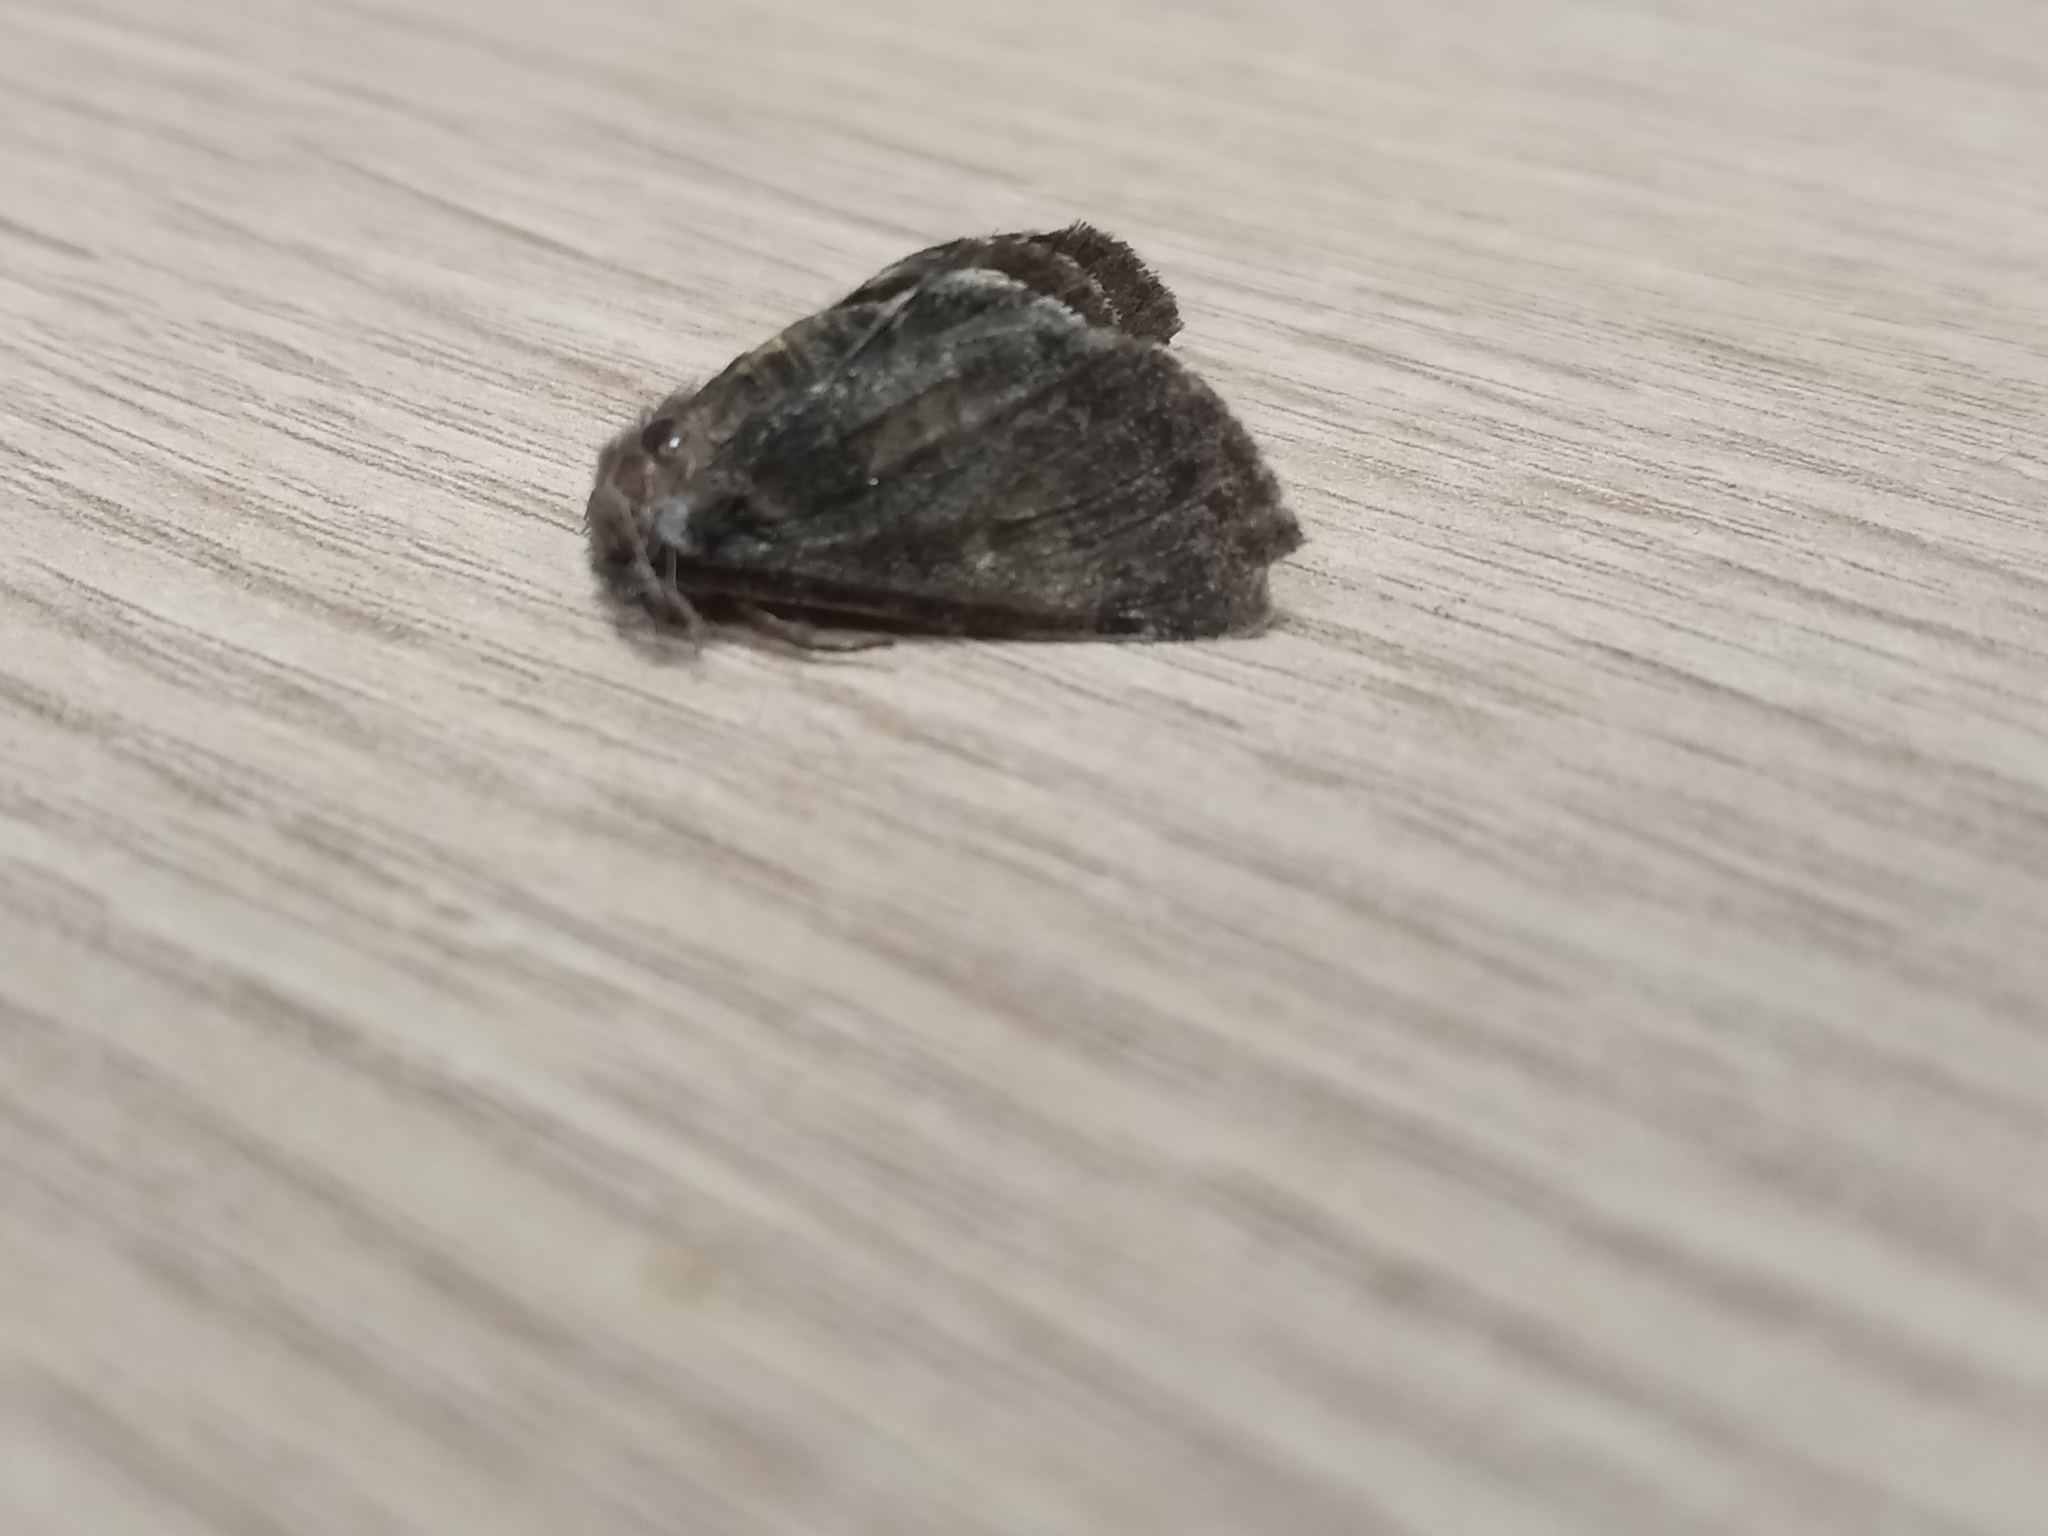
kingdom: Animalia
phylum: Arthropoda
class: Insecta
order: Lepidoptera
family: Notodontidae
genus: Gluphisia
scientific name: Gluphisia crenata
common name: Dusky marbled brown
